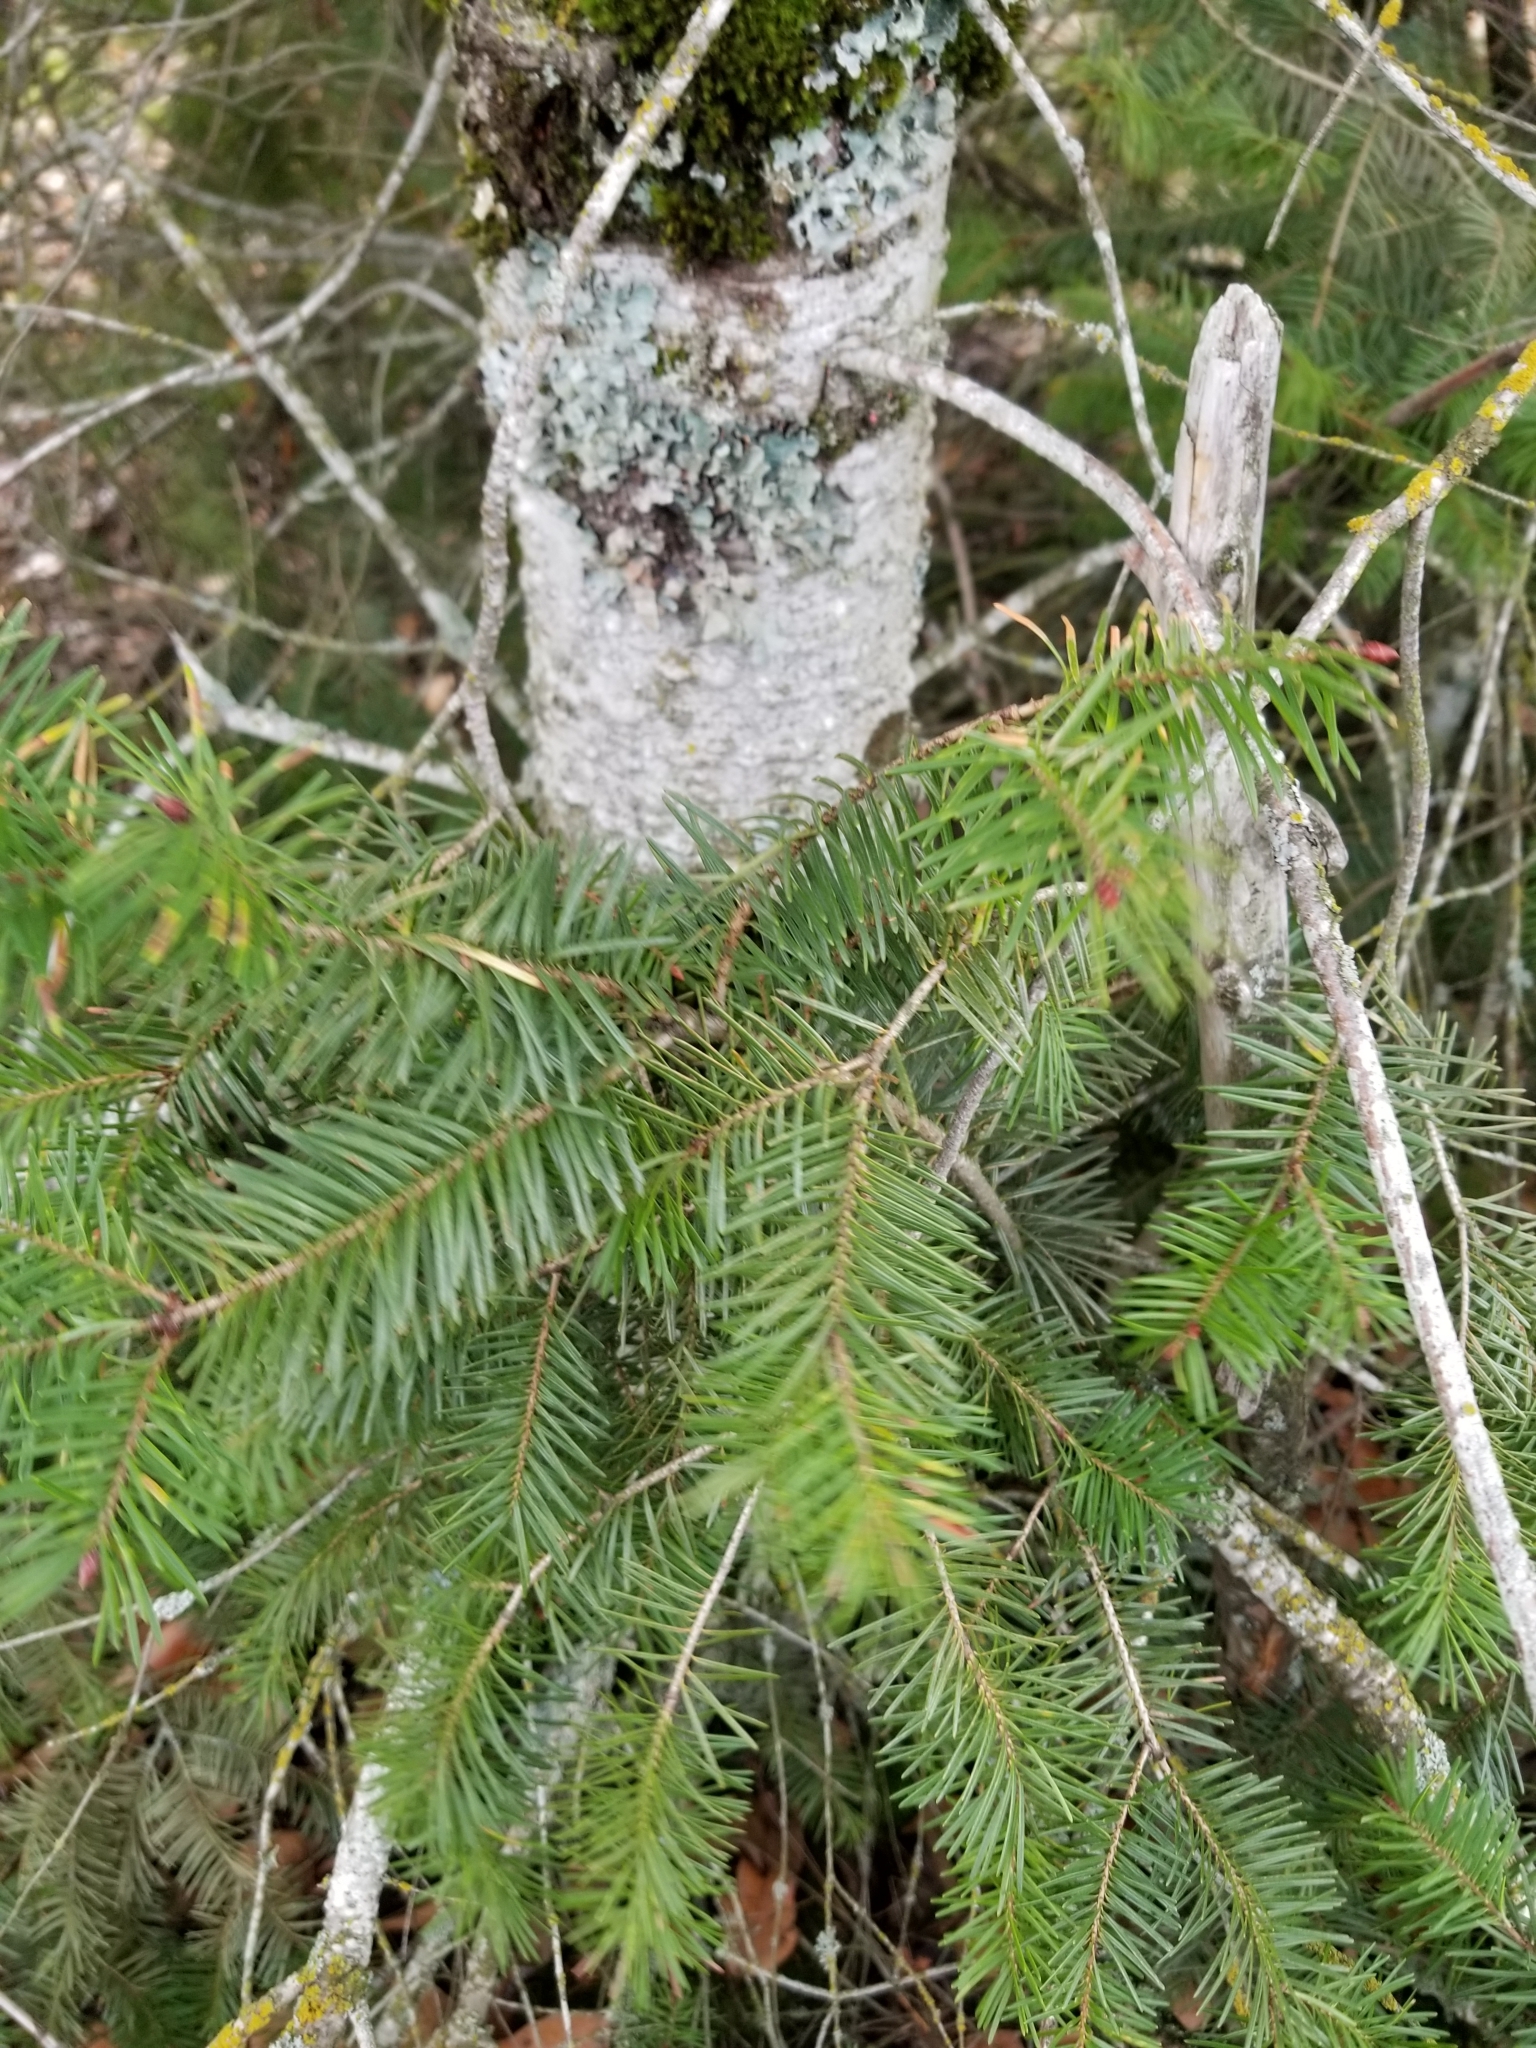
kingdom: Plantae
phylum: Tracheophyta
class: Pinopsida
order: Pinales
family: Pinaceae
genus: Pseudotsuga
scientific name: Pseudotsuga menziesii
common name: Douglas fir
